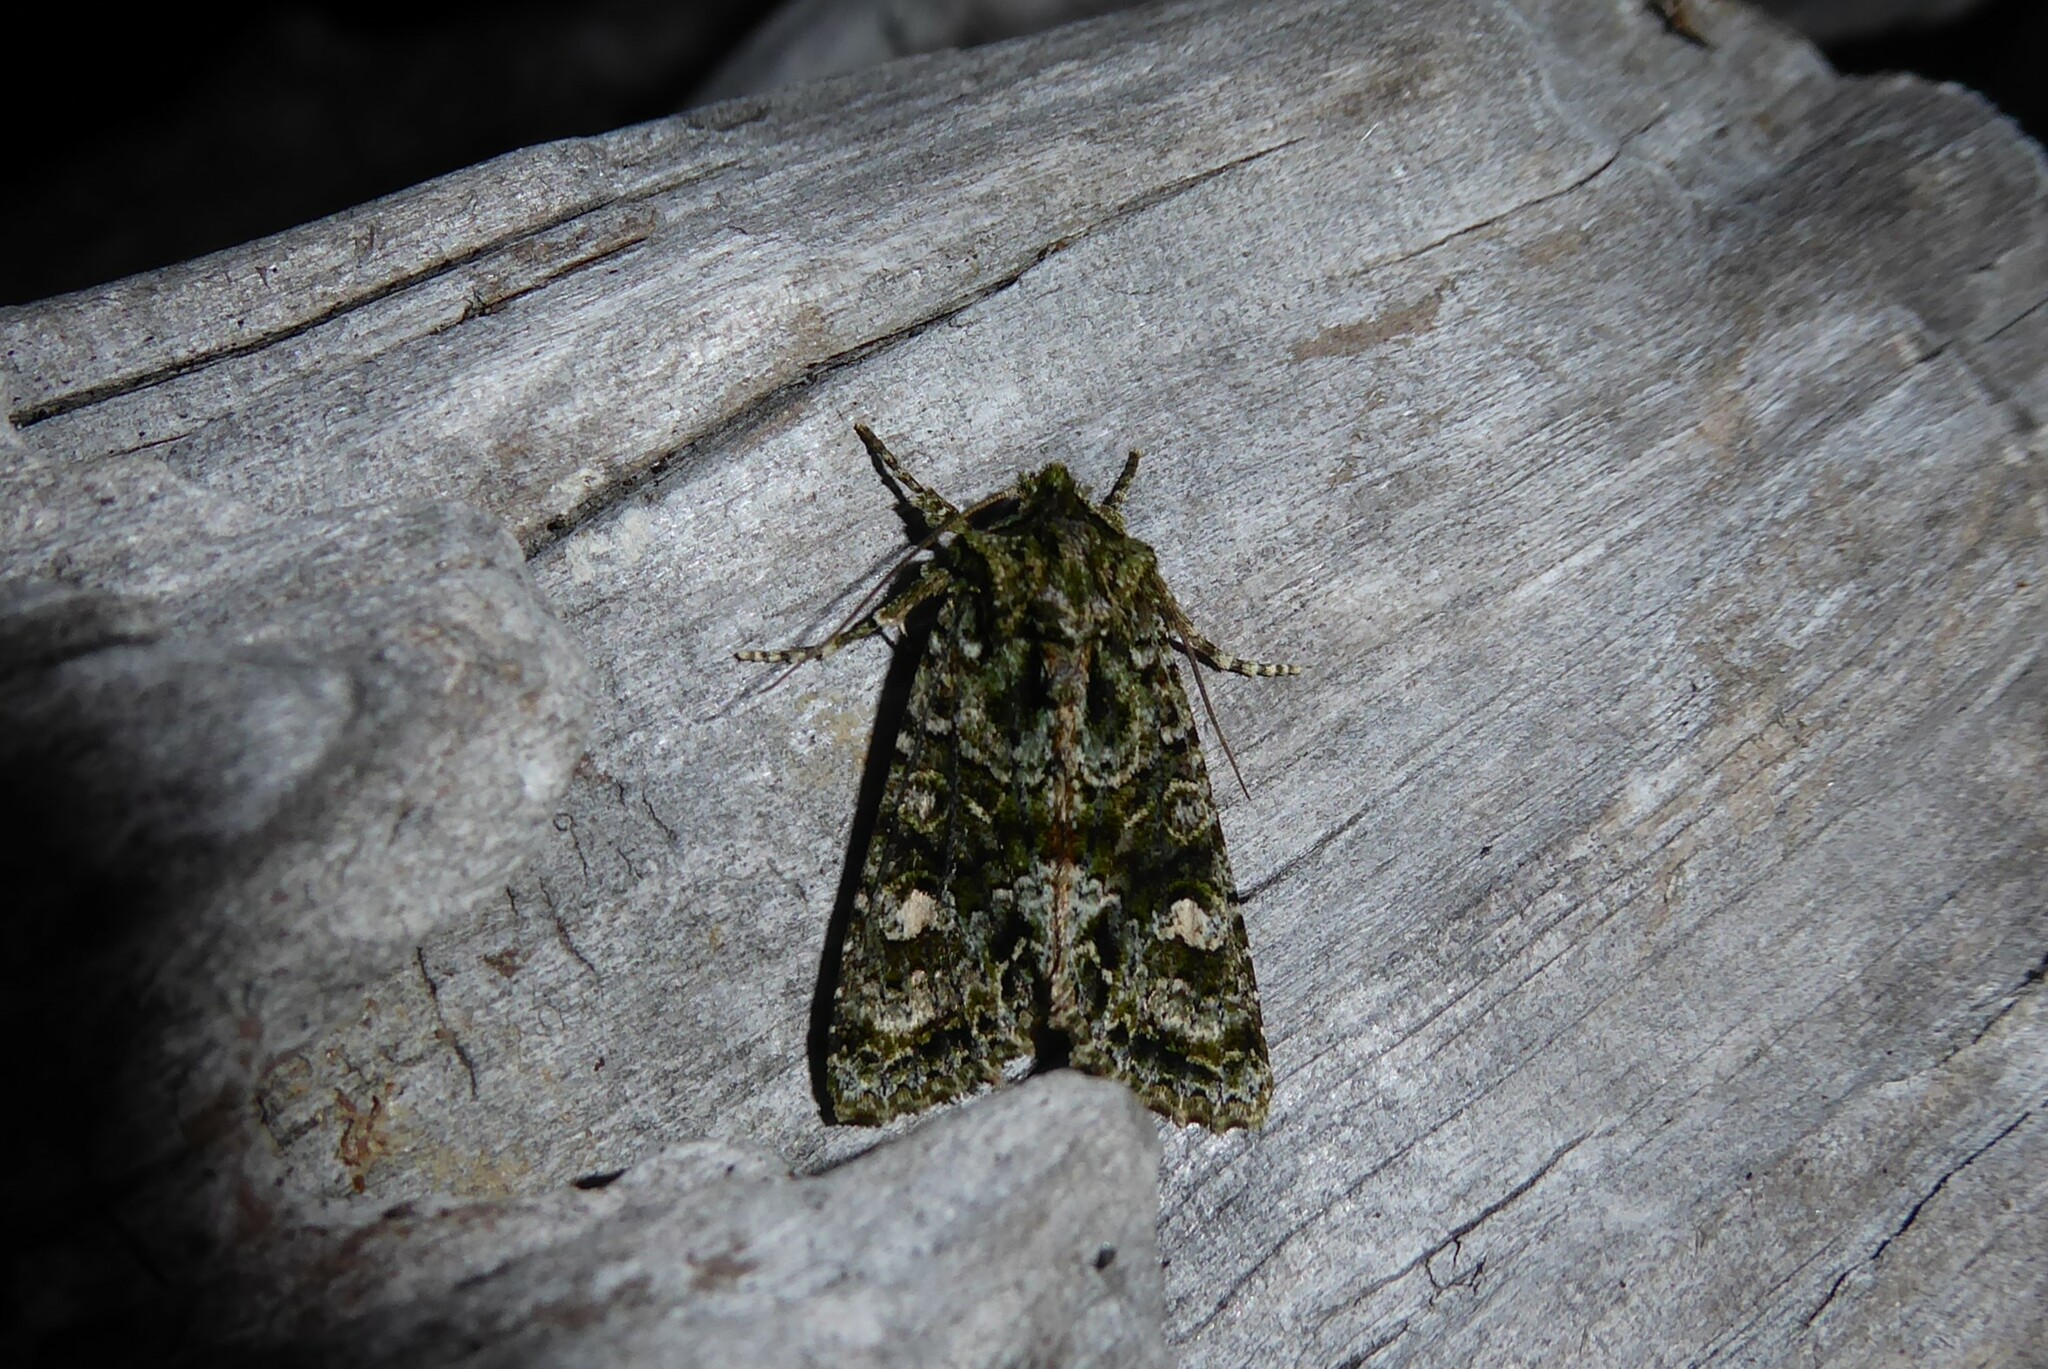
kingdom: Animalia
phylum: Arthropoda
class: Insecta
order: Lepidoptera
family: Noctuidae
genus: Ichneutica
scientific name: Ichneutica
